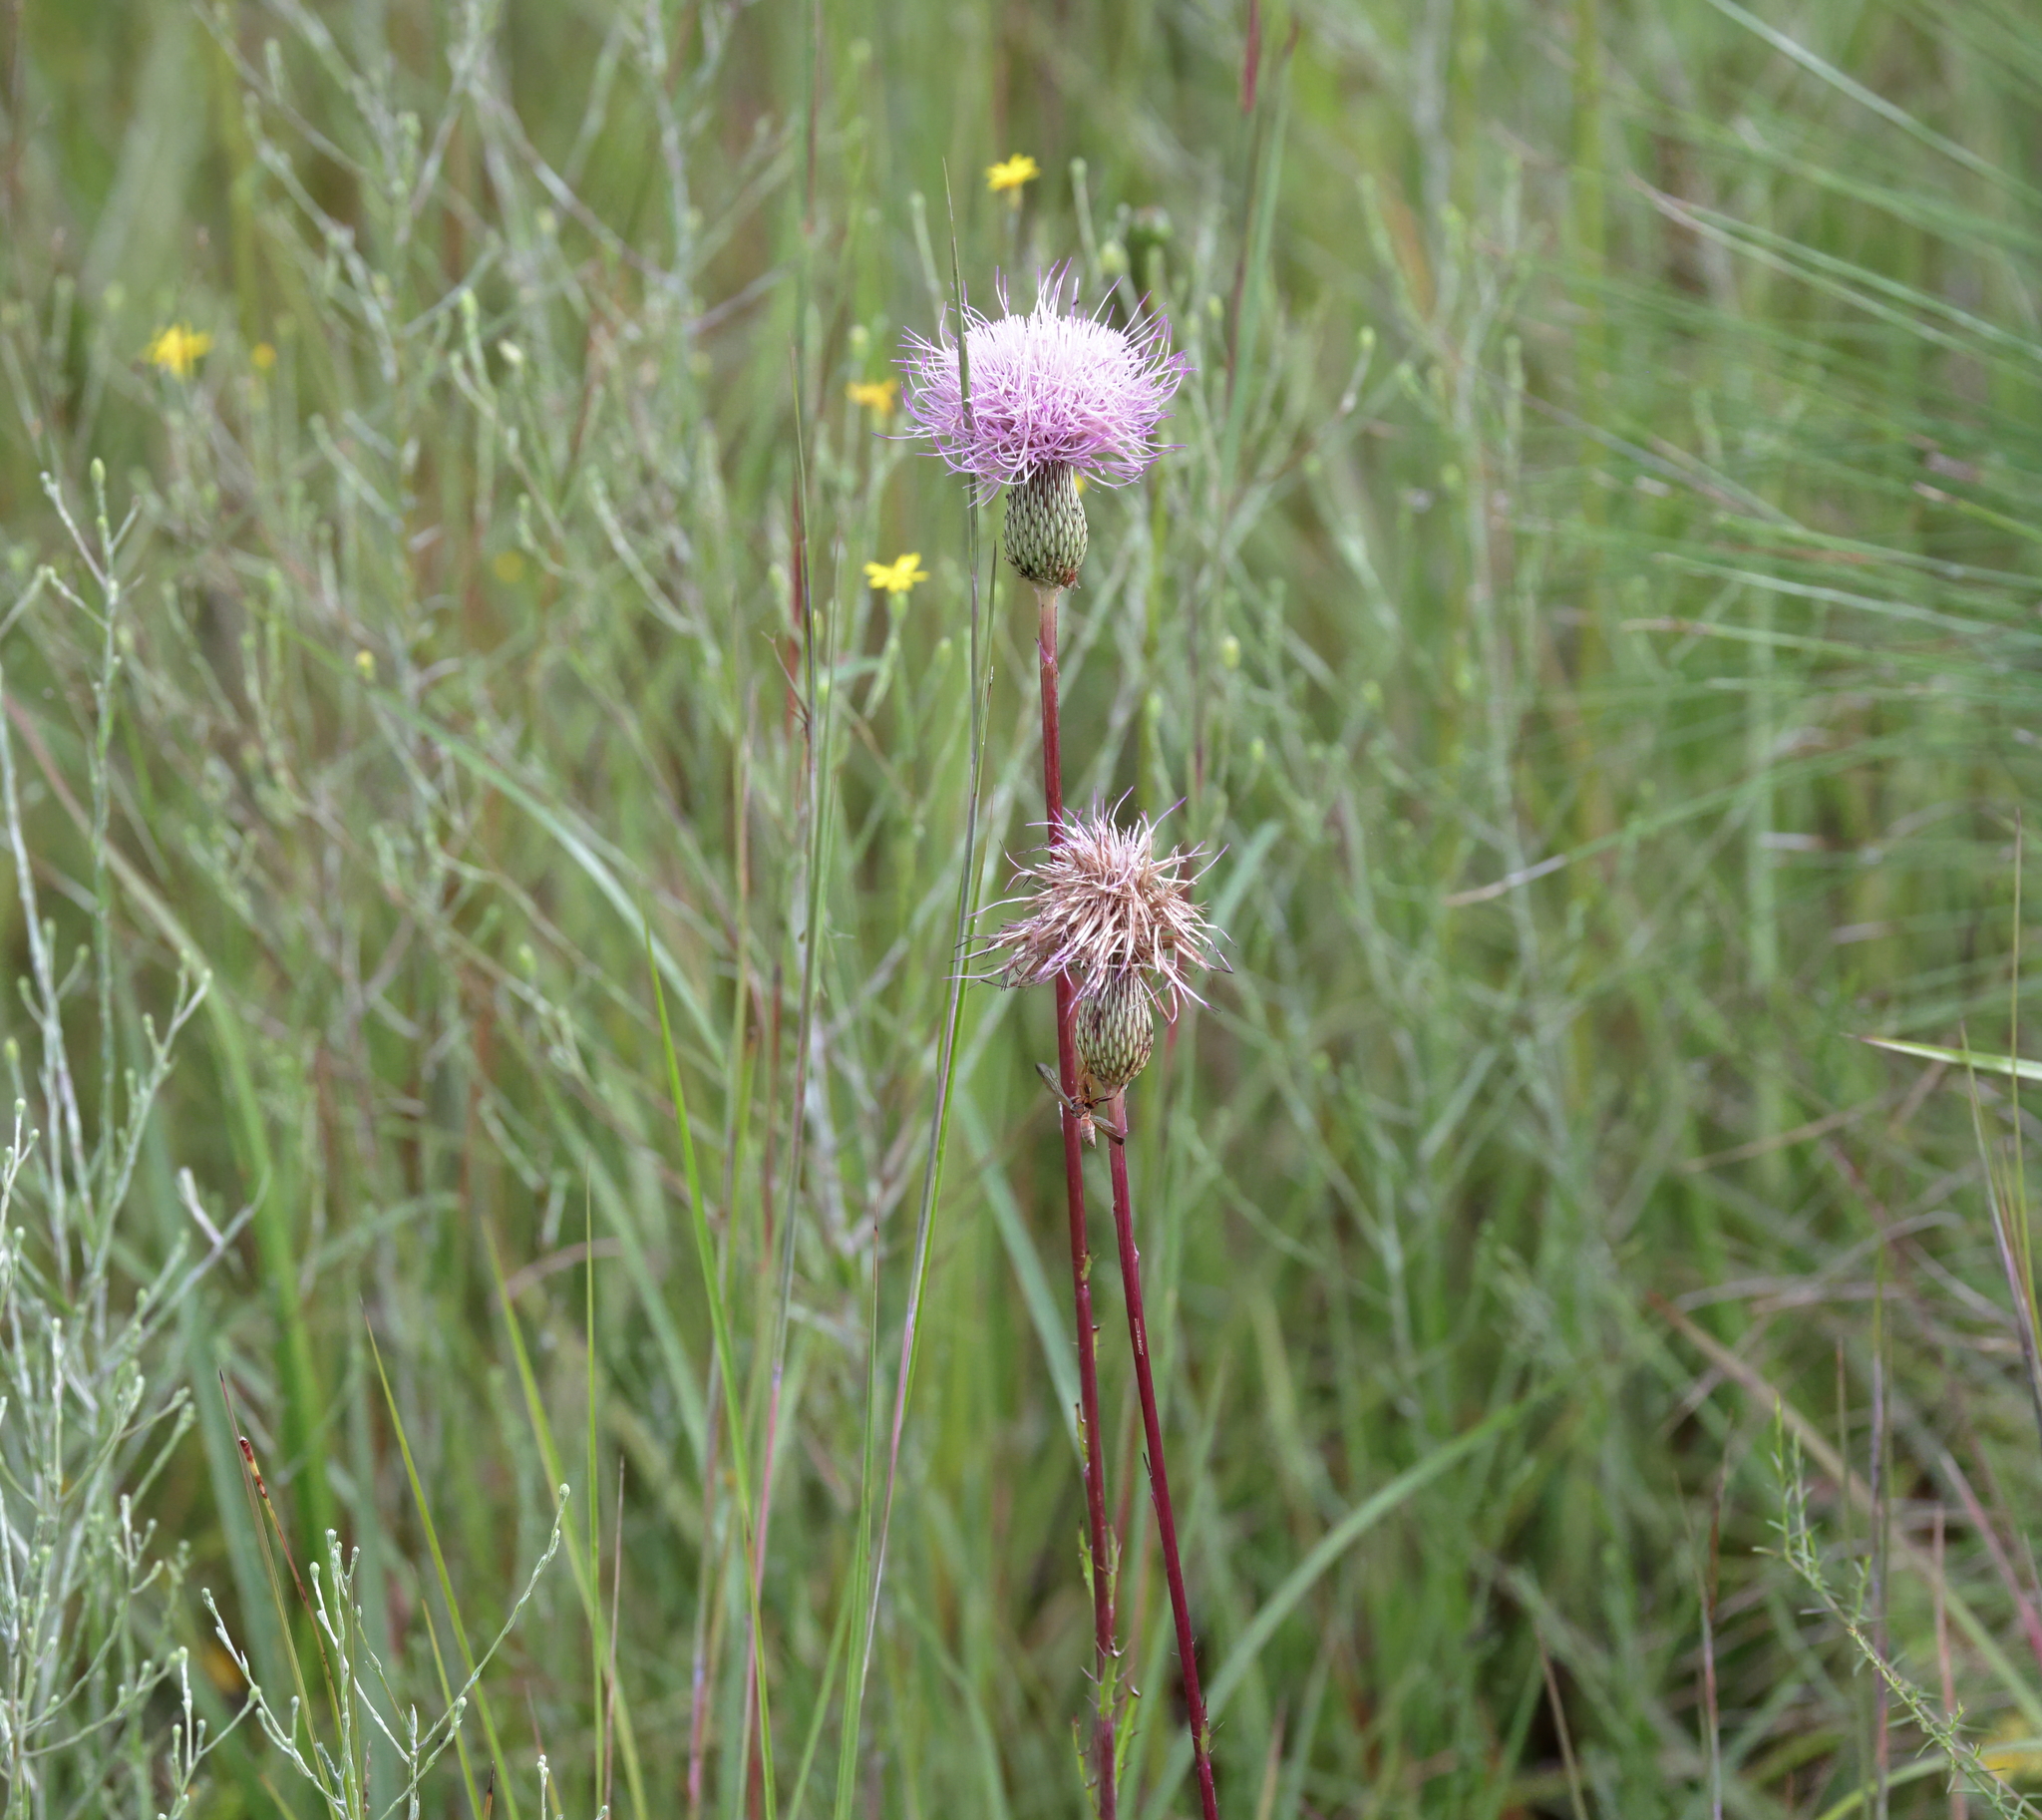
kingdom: Plantae
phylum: Tracheophyta
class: Magnoliopsida
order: Asterales
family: Asteraceae
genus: Cirsium
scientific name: Cirsium lecontei
